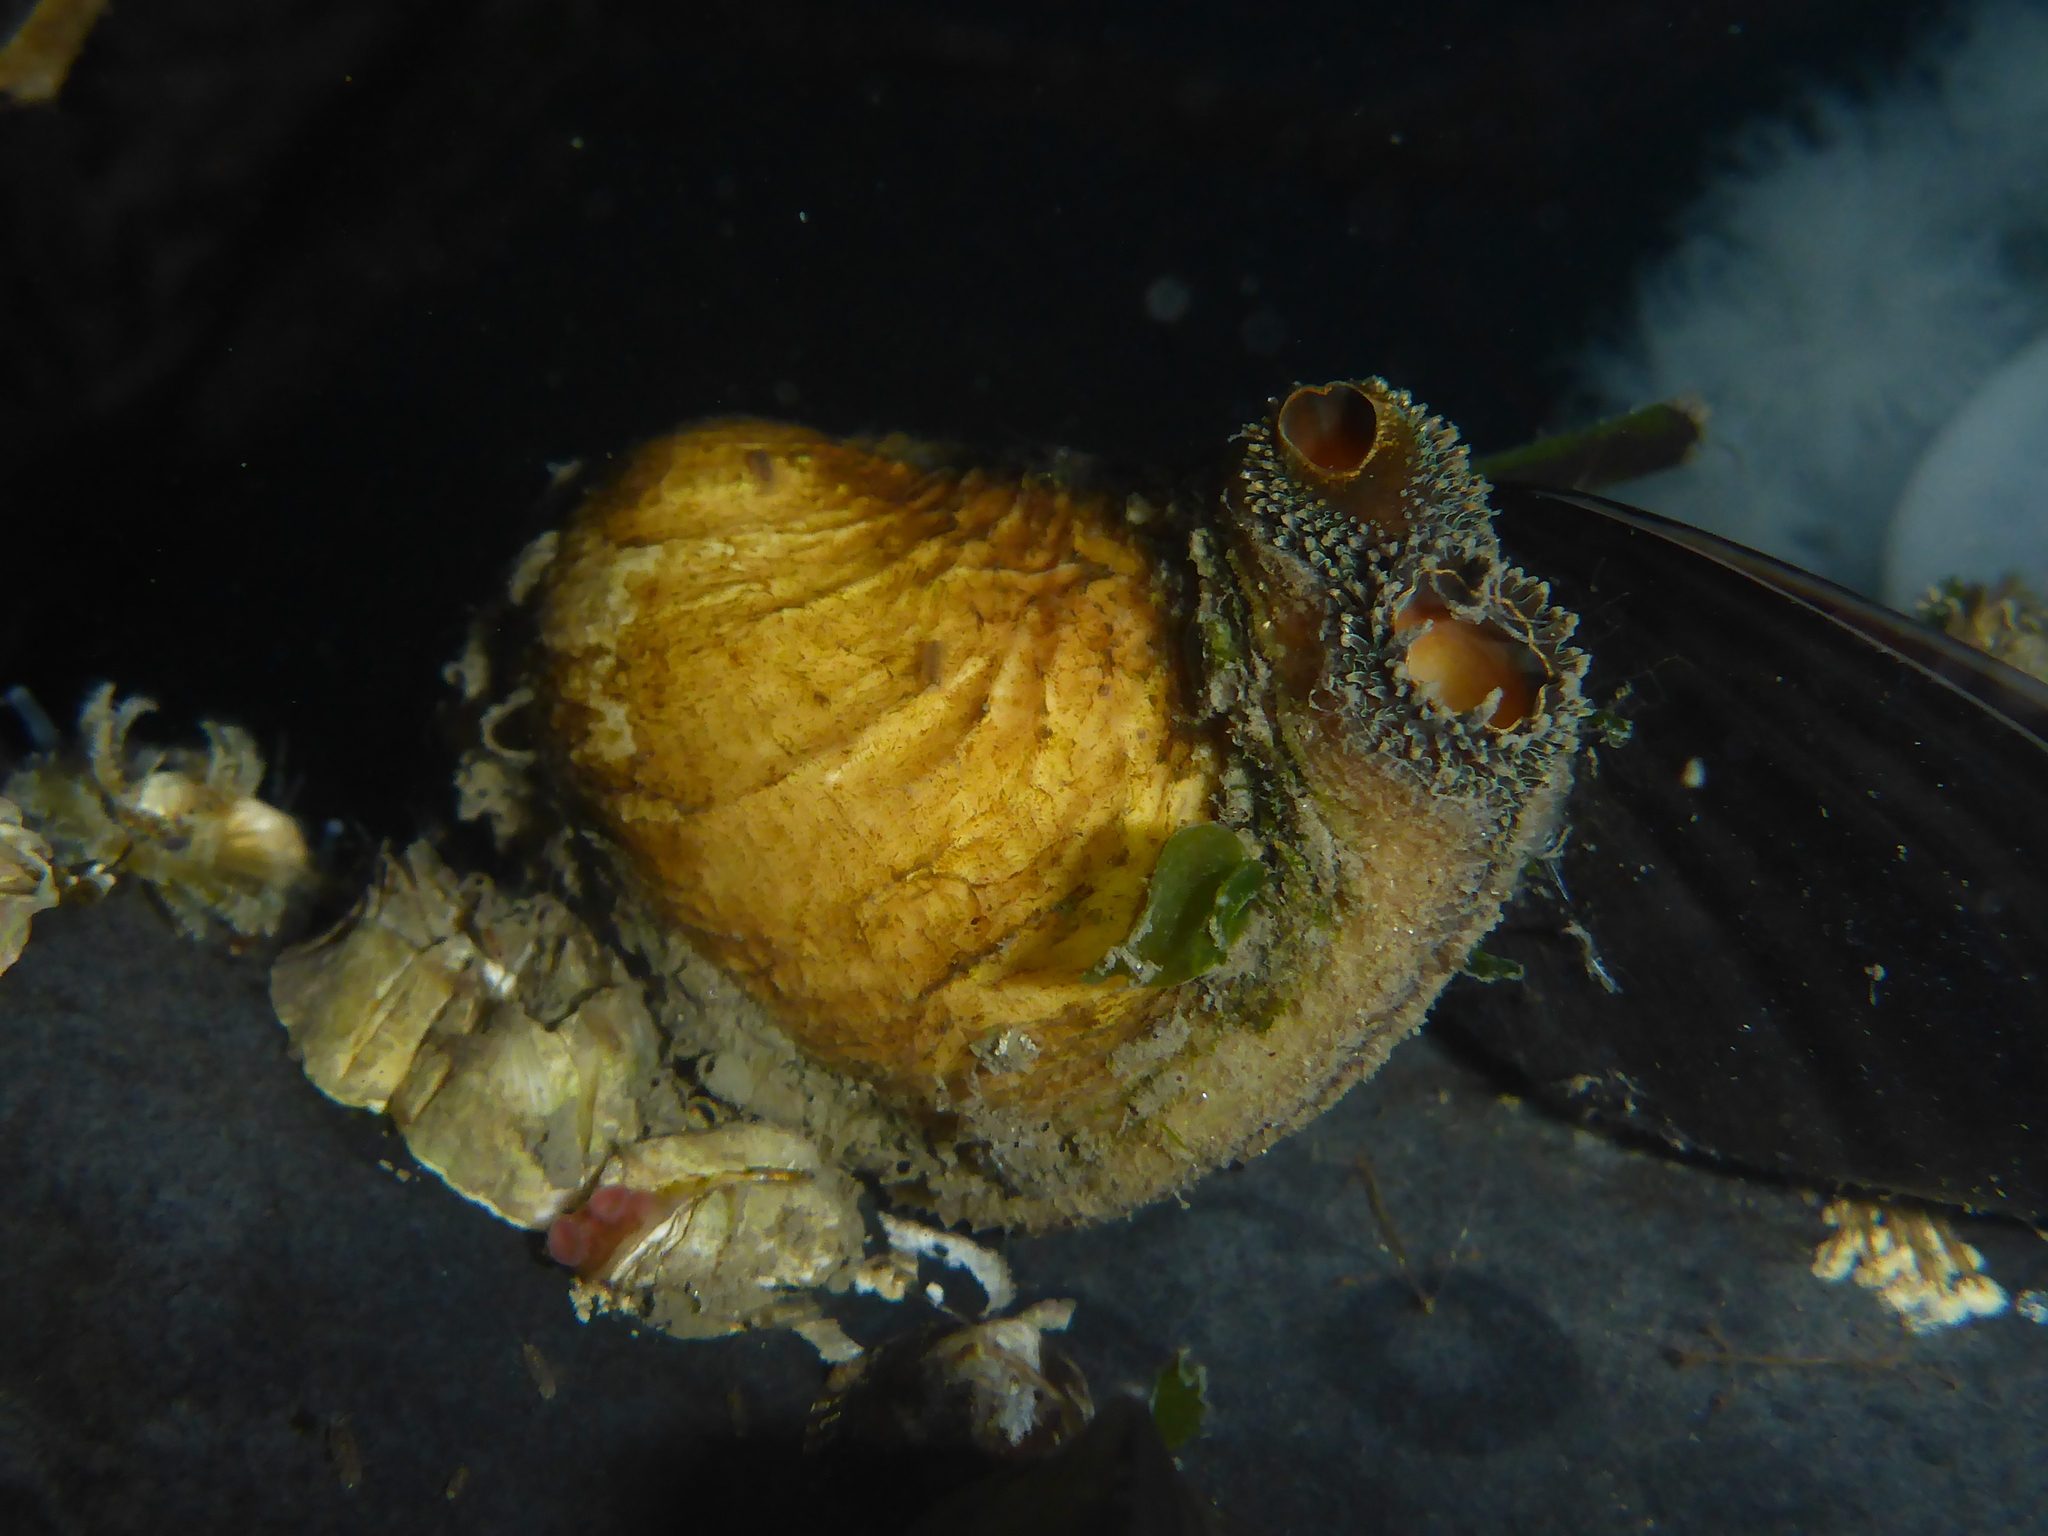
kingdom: Animalia
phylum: Mollusca
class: Bivalvia
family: Lyonsiidae
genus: Entodesma
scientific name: Entodesma navicula
